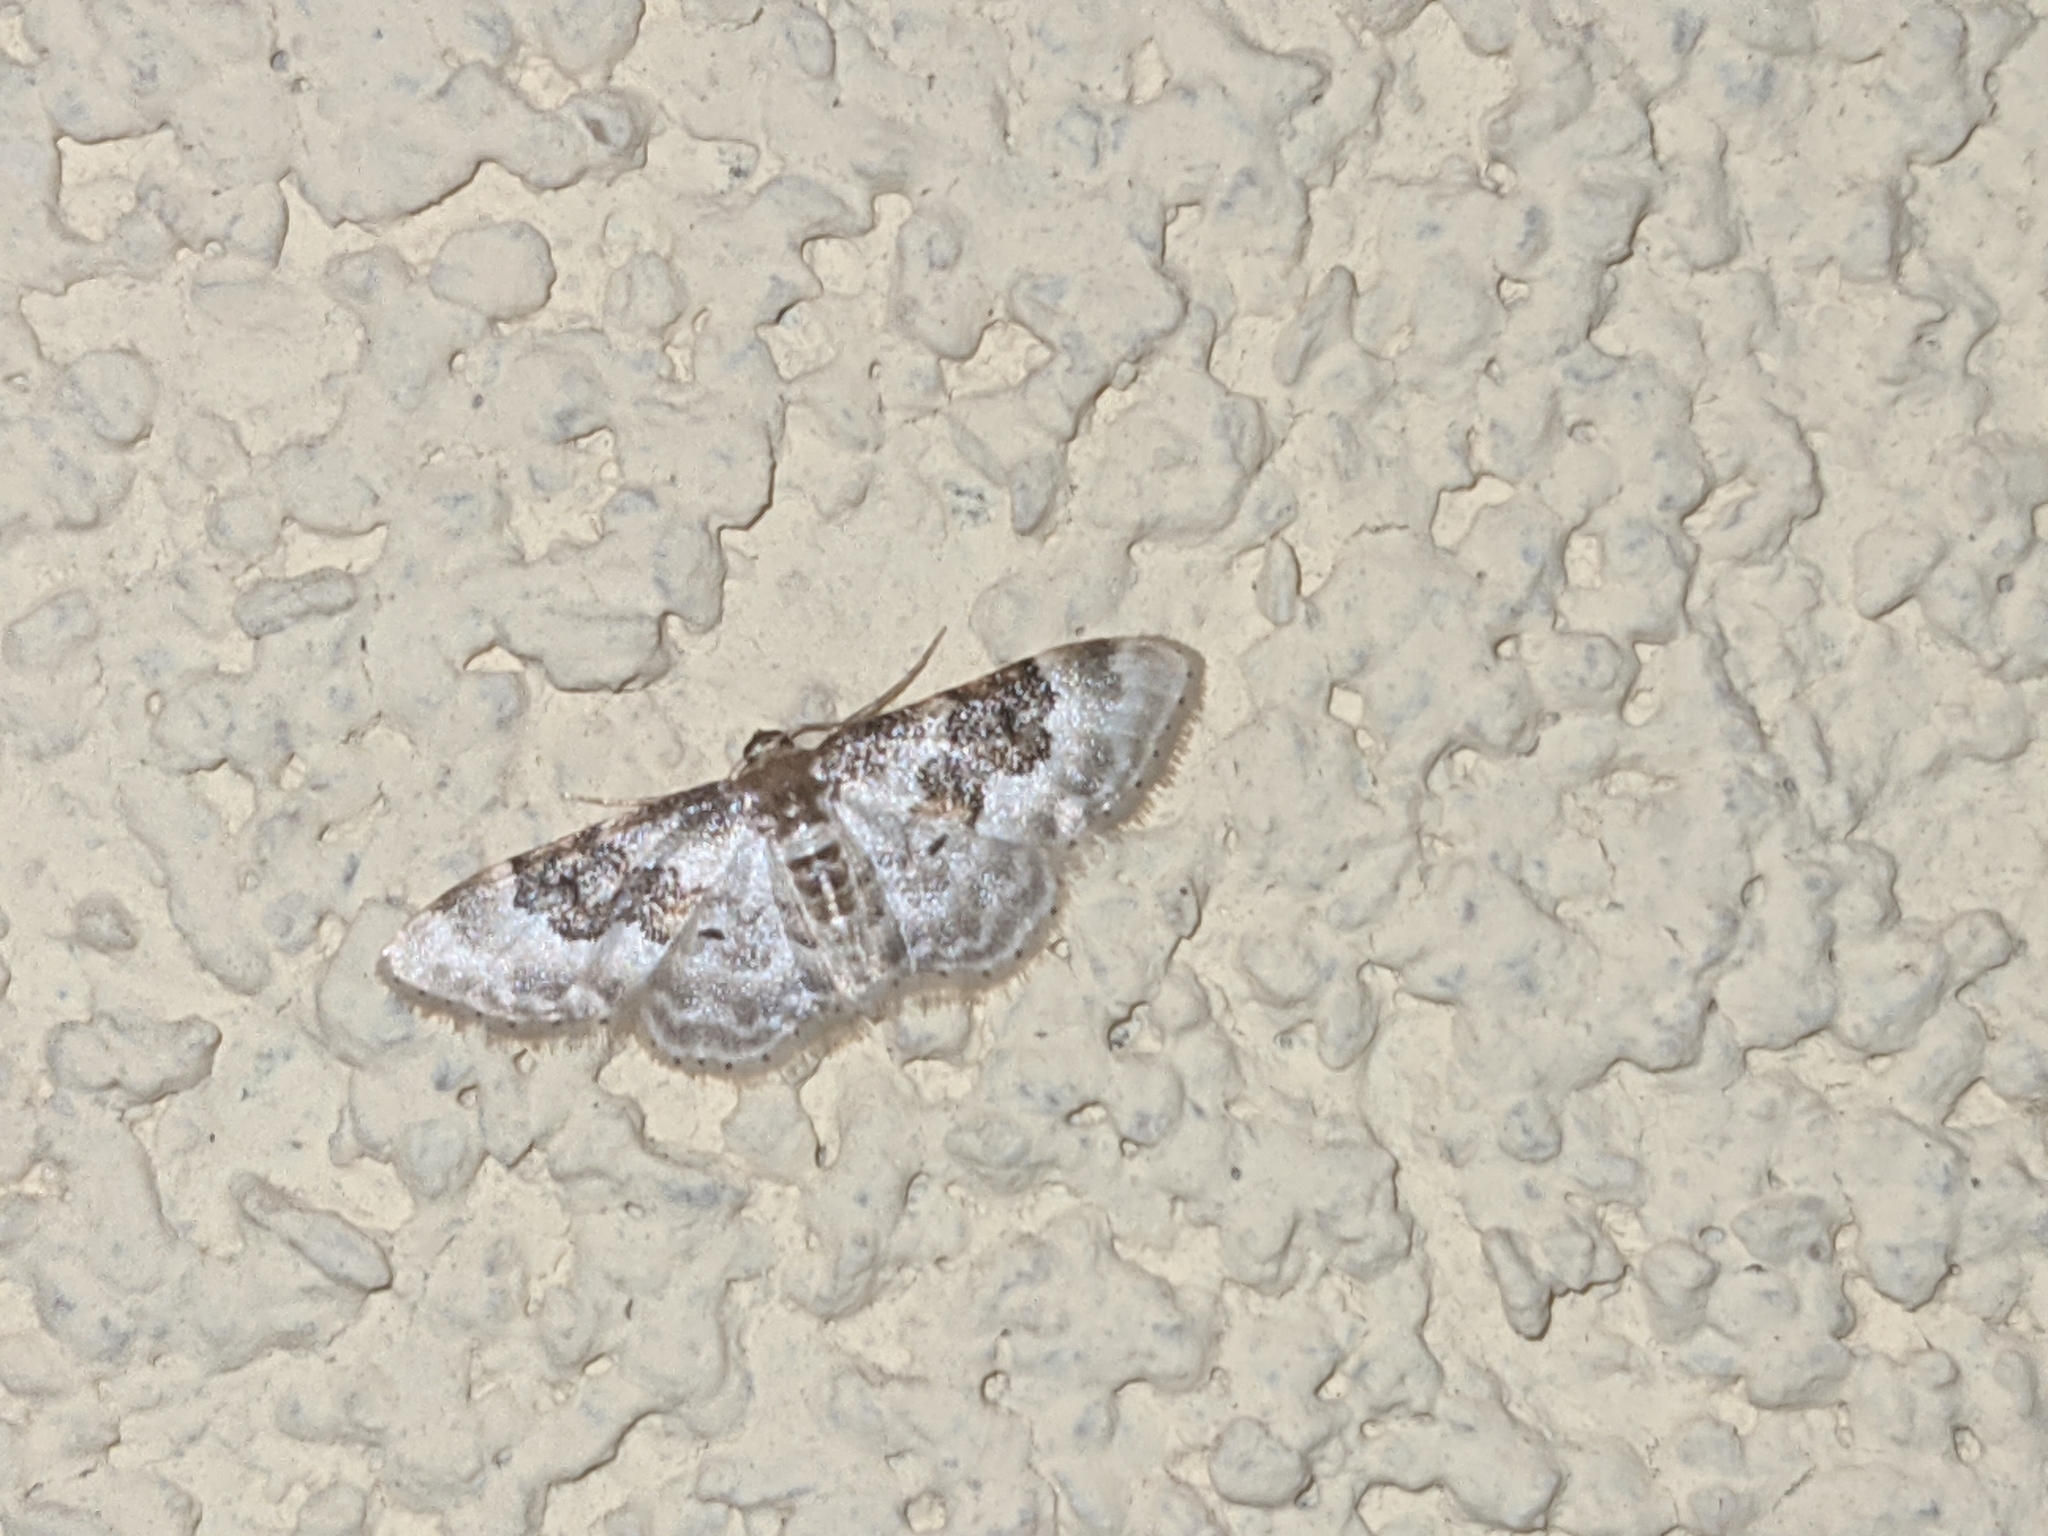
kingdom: Animalia
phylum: Arthropoda
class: Insecta
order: Lepidoptera
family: Geometridae
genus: Idaea
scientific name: Idaea rusticata
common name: Least carpet
